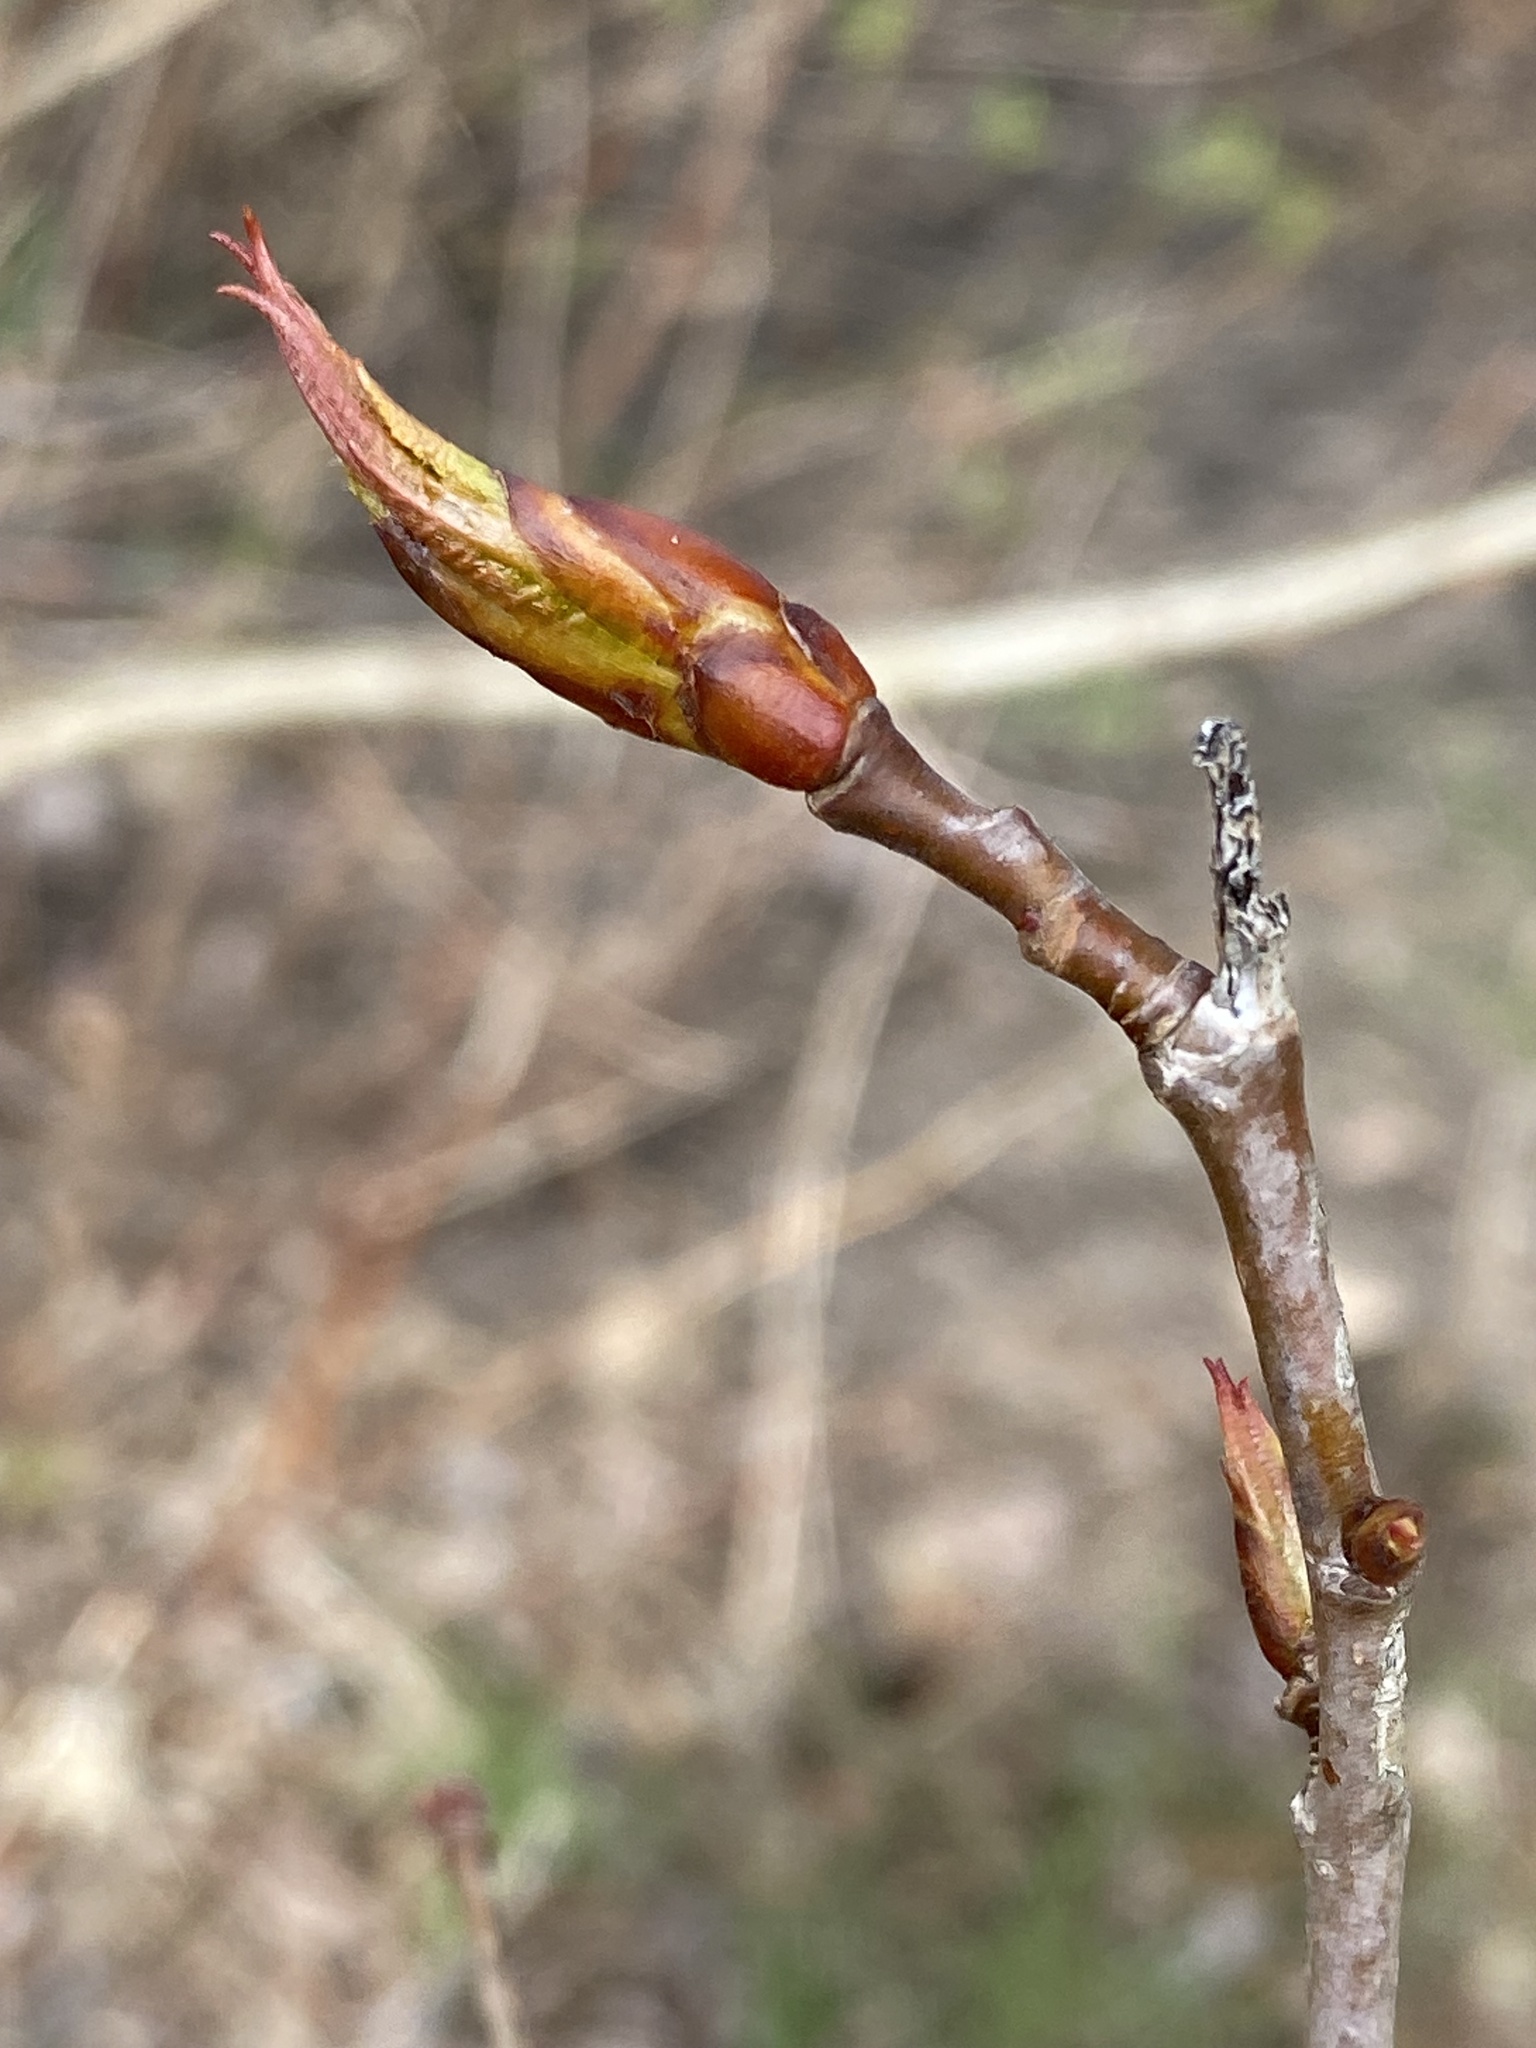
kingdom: Plantae
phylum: Tracheophyta
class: Magnoliopsida
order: Malpighiales
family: Salicaceae
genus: Populus
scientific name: Populus trichocarpa
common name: Black cottonwood
